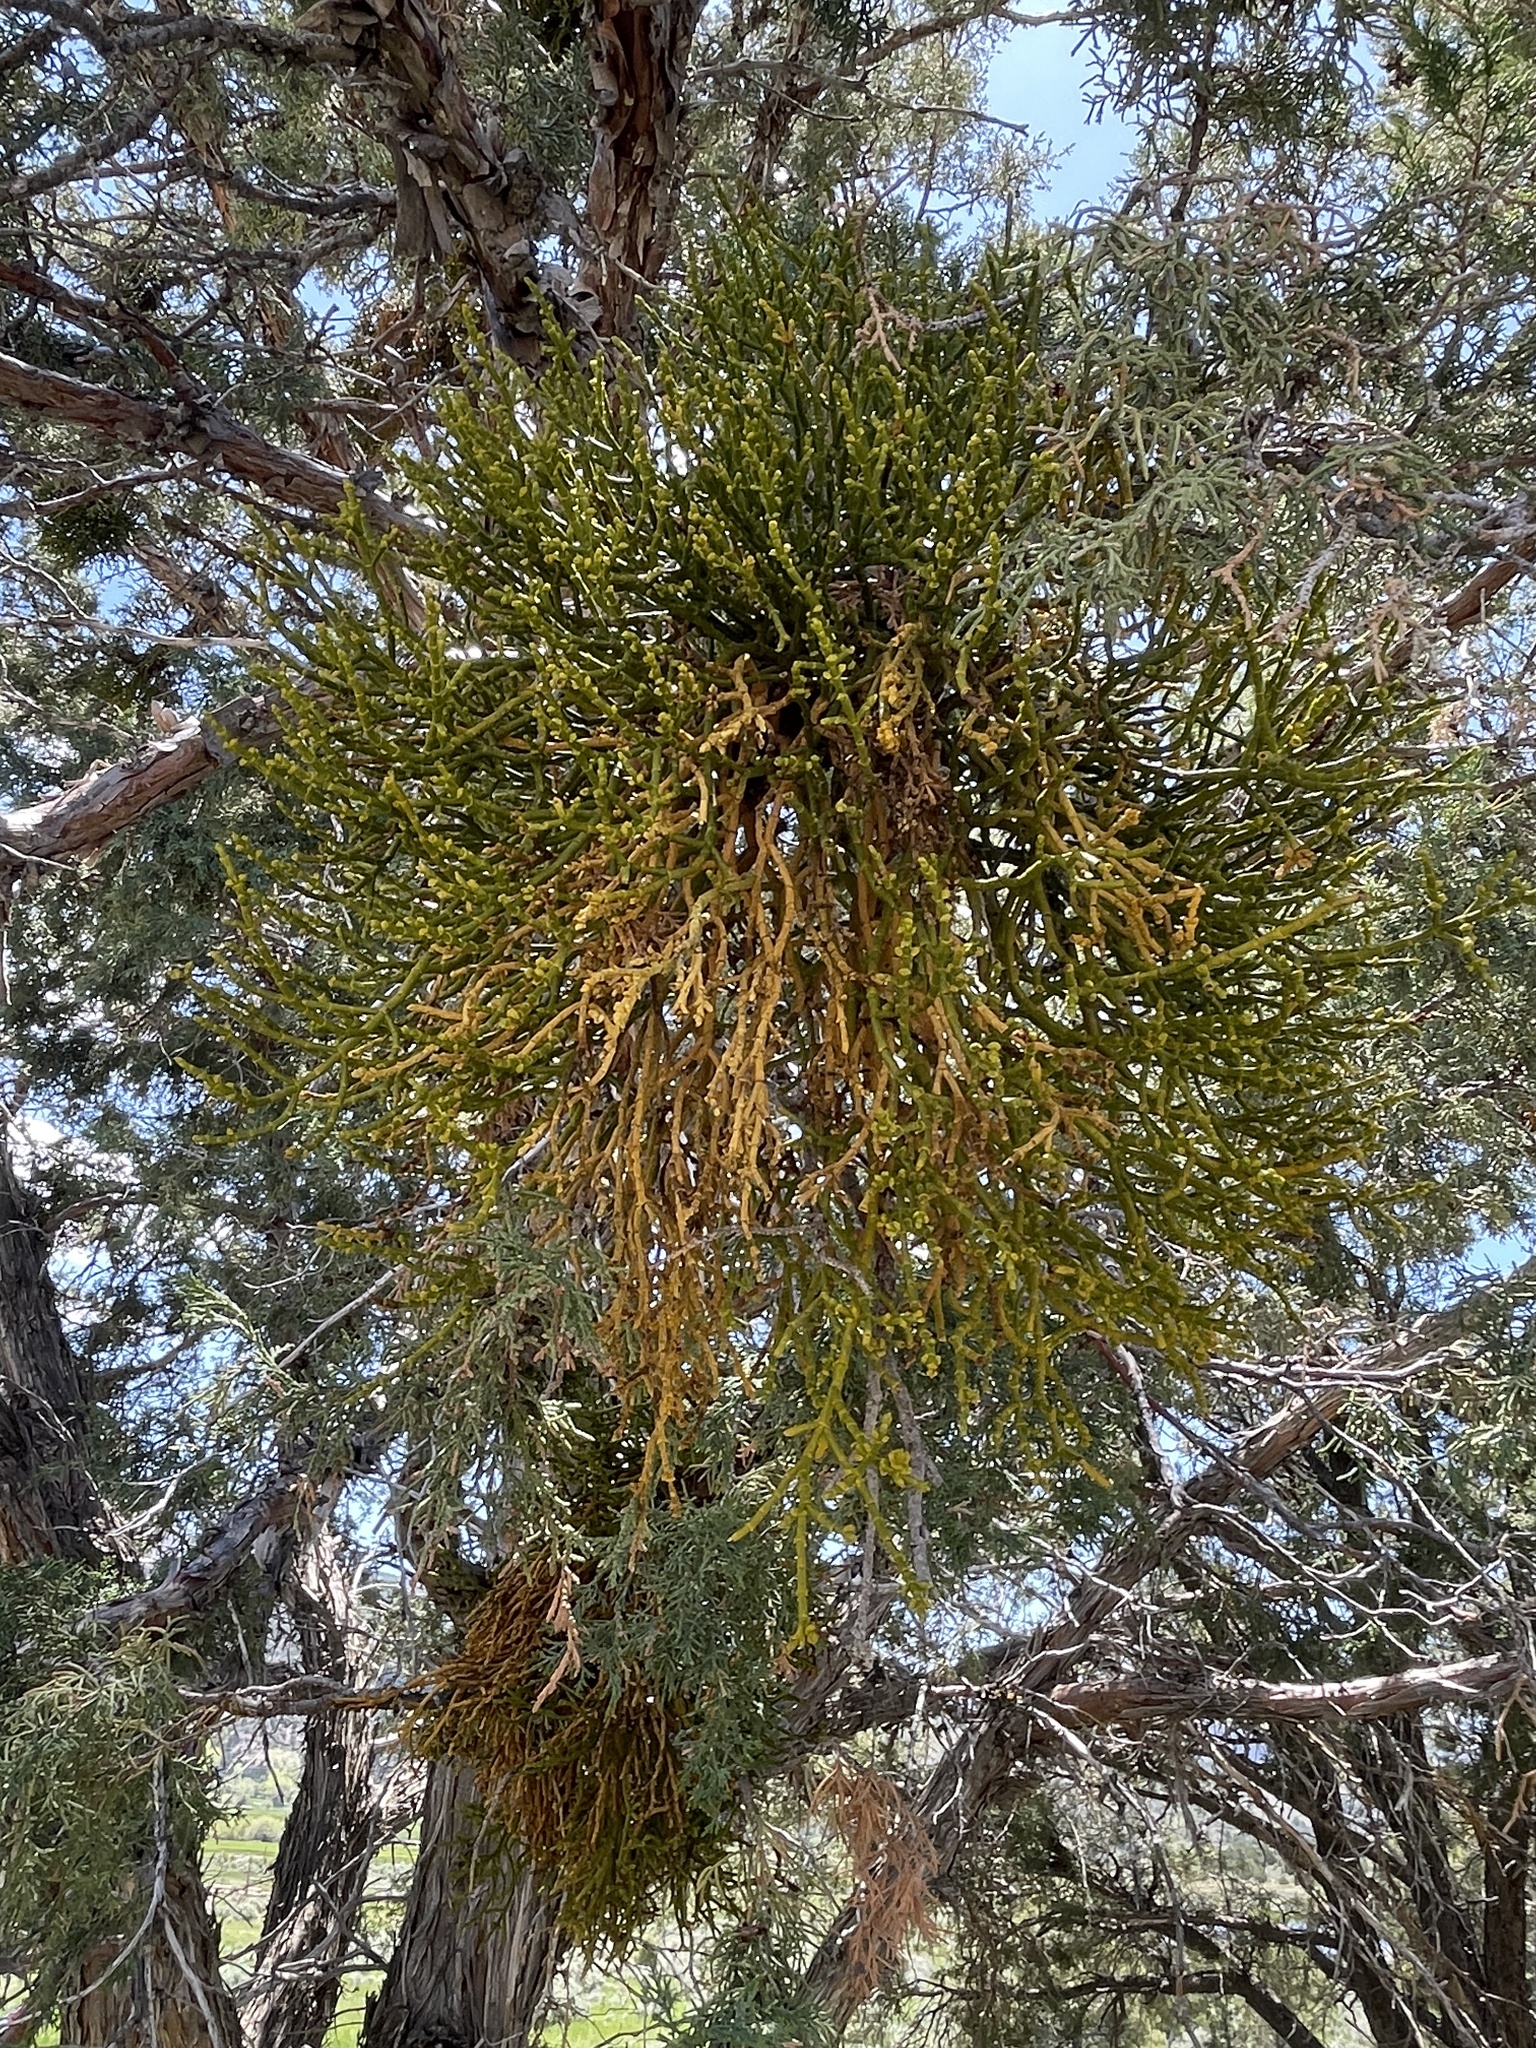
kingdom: Plantae
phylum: Tracheophyta
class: Magnoliopsida
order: Santalales
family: Viscaceae
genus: Phoradendron
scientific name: Phoradendron juniperinum
